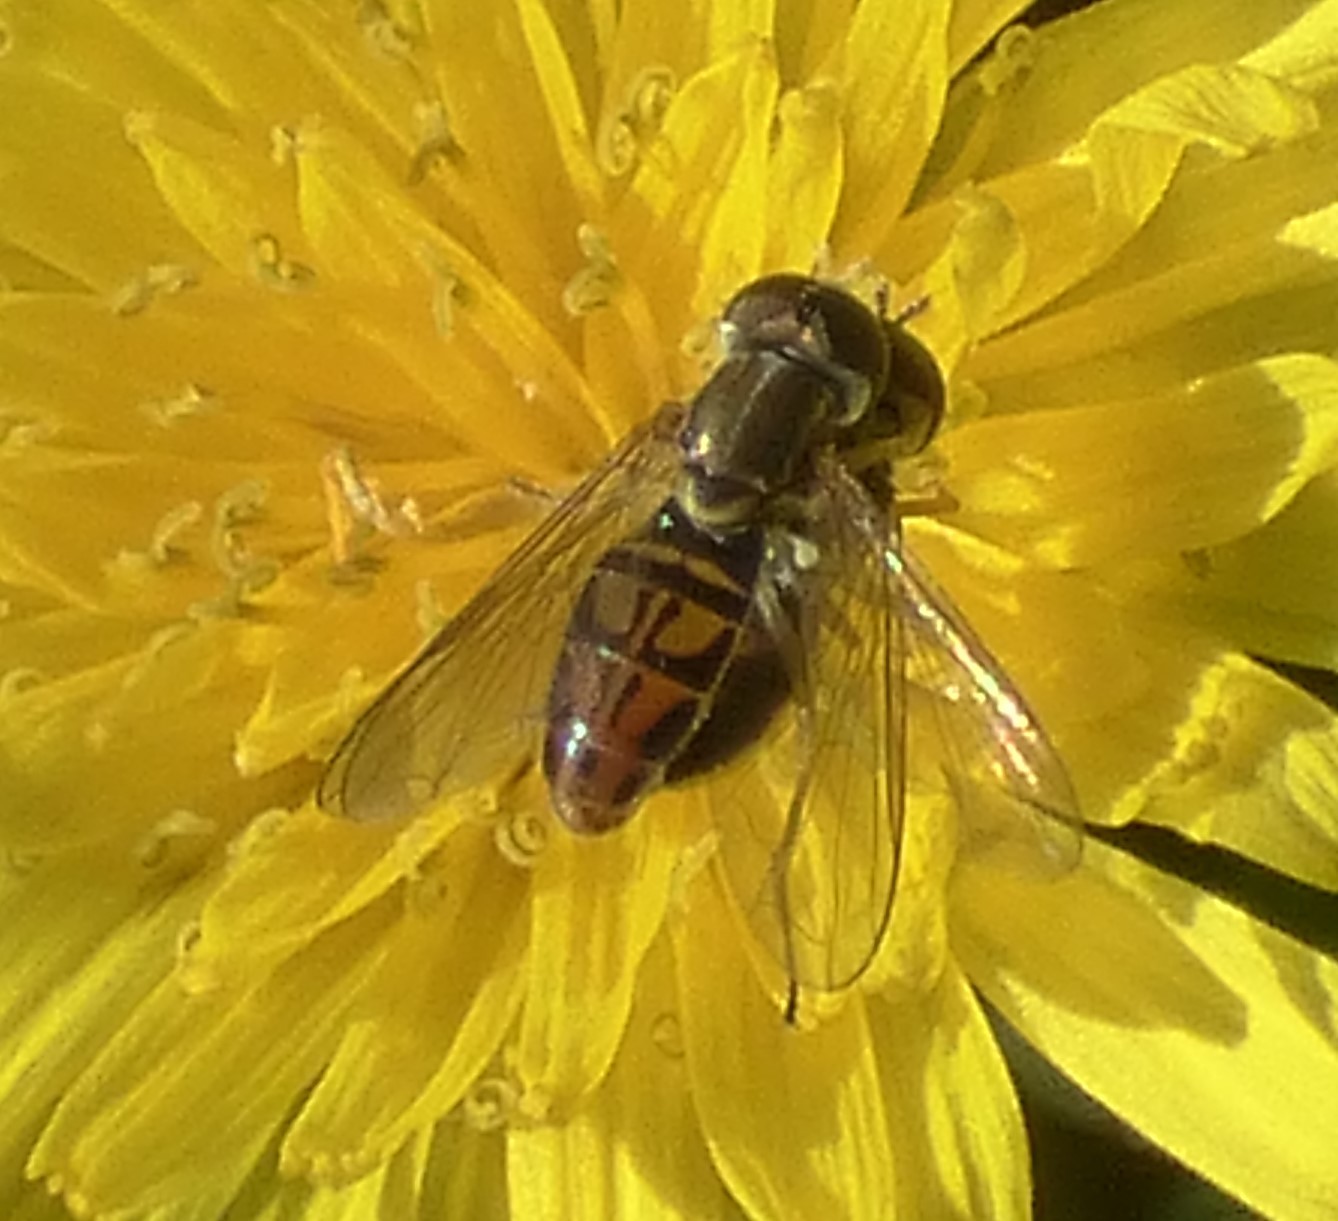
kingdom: Animalia
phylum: Arthropoda
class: Insecta
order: Diptera
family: Syrphidae
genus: Toxomerus
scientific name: Toxomerus marginatus
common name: Syrphid fly
